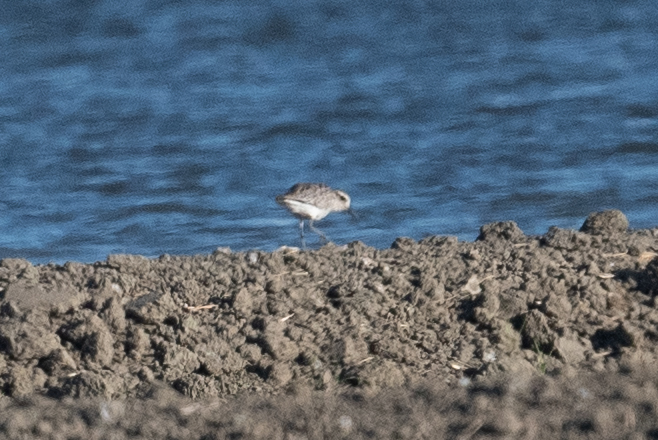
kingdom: Animalia
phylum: Chordata
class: Aves
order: Charadriiformes
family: Charadriidae
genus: Pluvialis
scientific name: Pluvialis squatarola
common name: Grey plover
